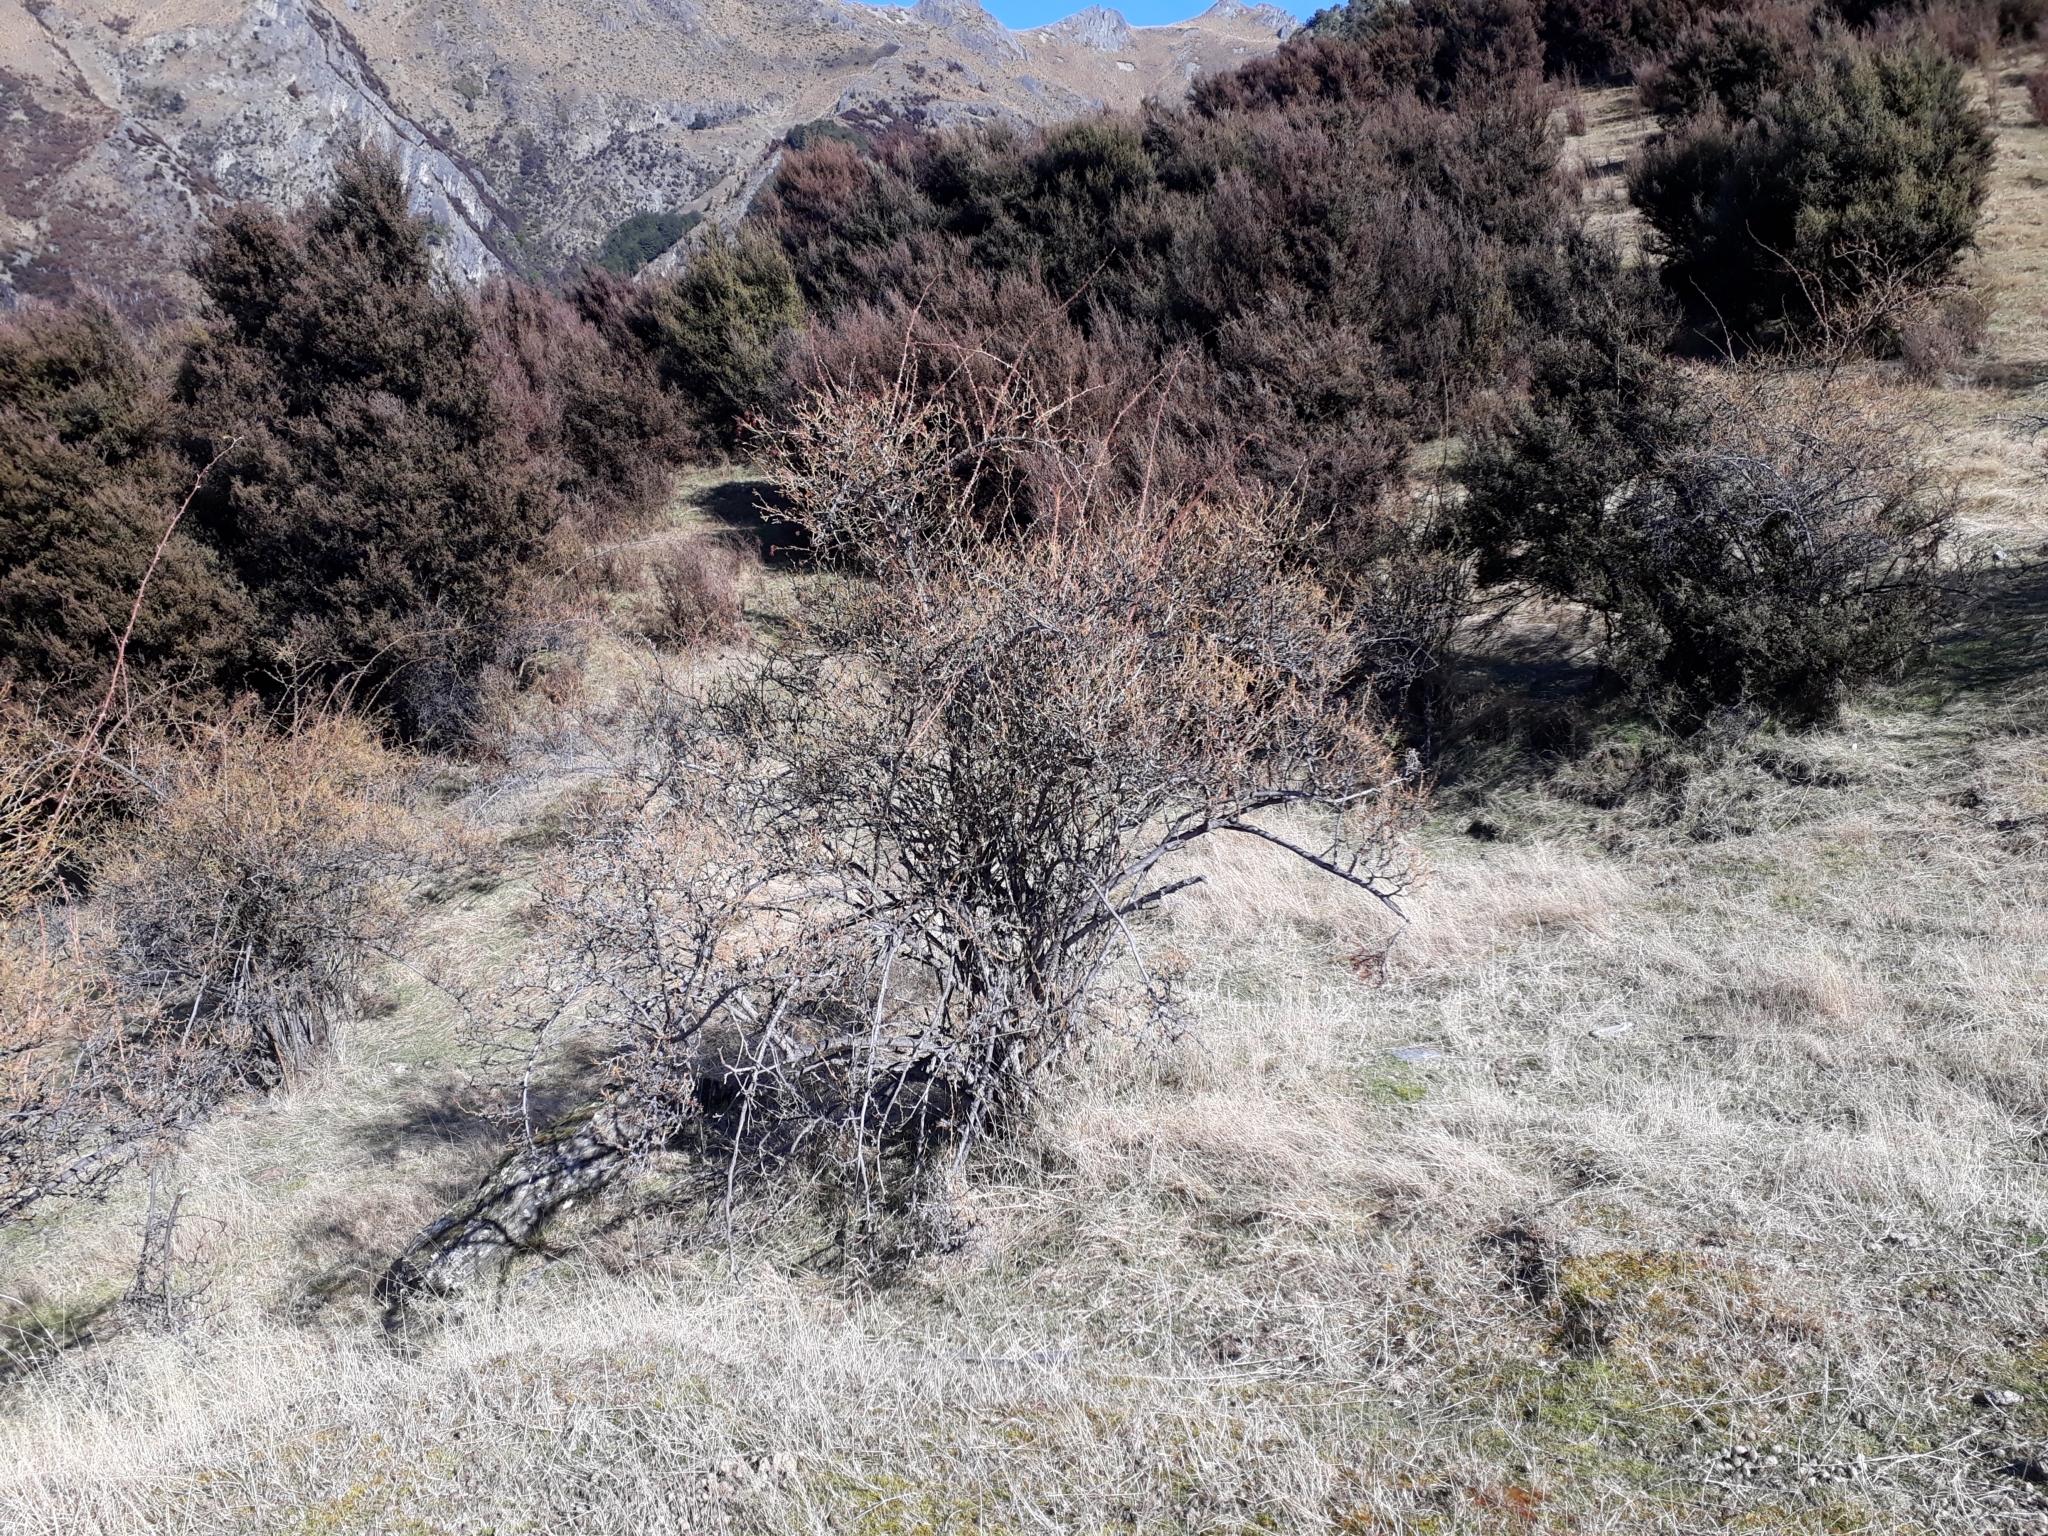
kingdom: Plantae
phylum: Tracheophyta
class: Magnoliopsida
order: Rosales
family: Rosaceae
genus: Rosa
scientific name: Rosa rubiginosa
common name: Sweet-briar
